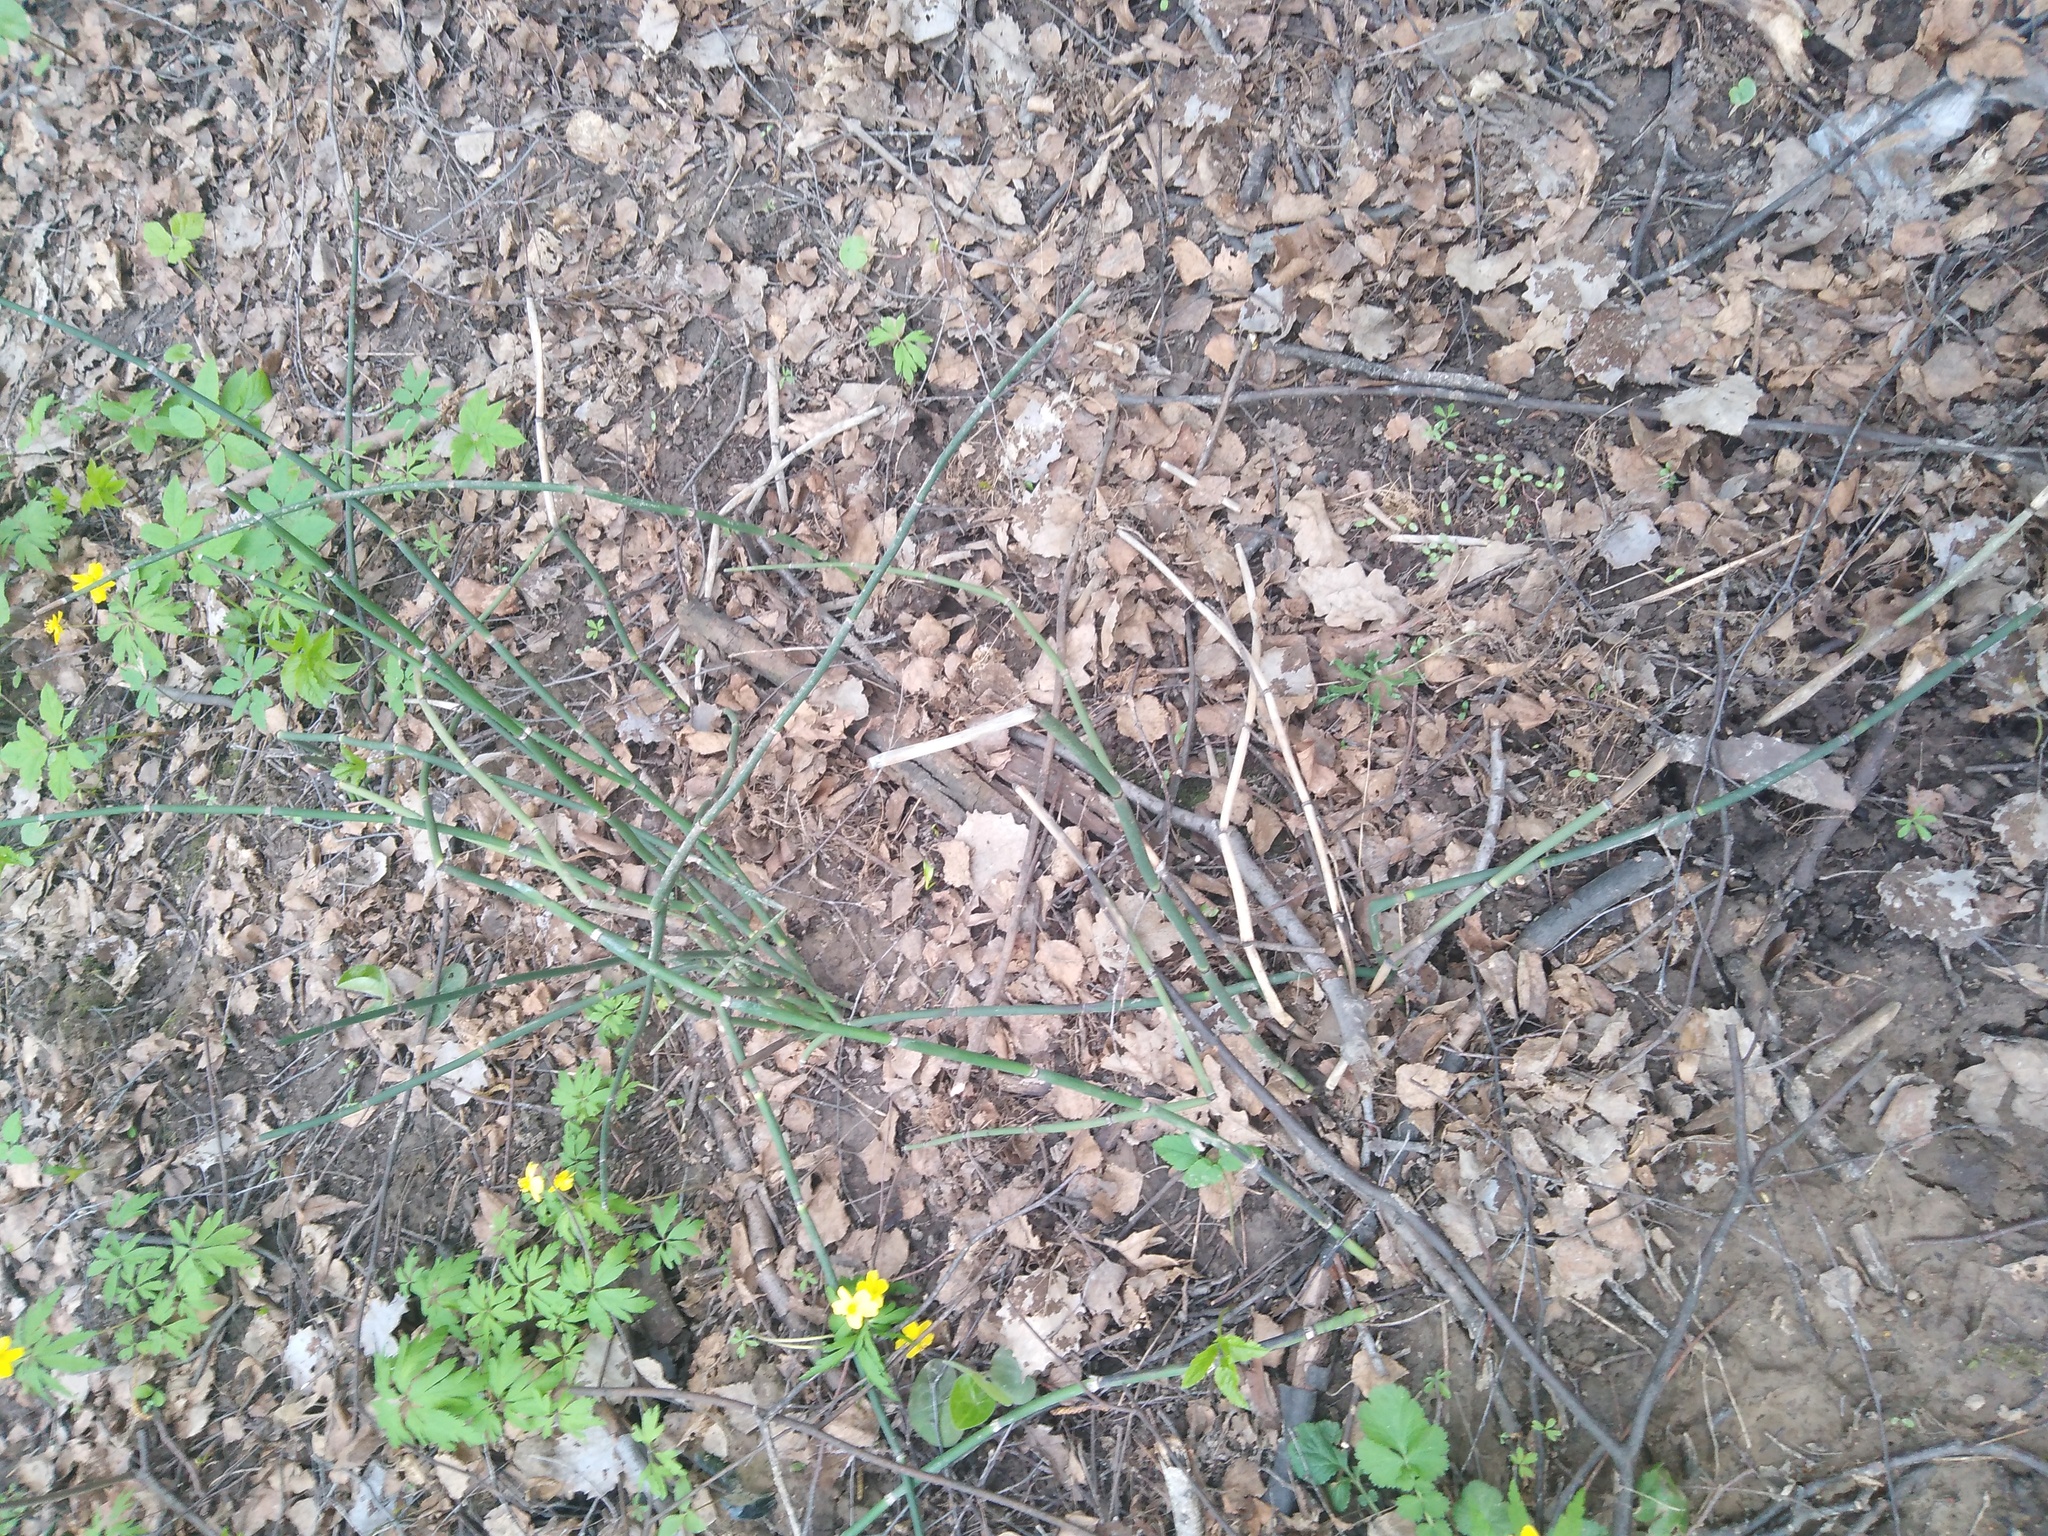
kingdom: Plantae
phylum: Tracheophyta
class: Polypodiopsida
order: Equisetales
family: Equisetaceae
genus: Equisetum
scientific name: Equisetum hyemale
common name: Rough horsetail
